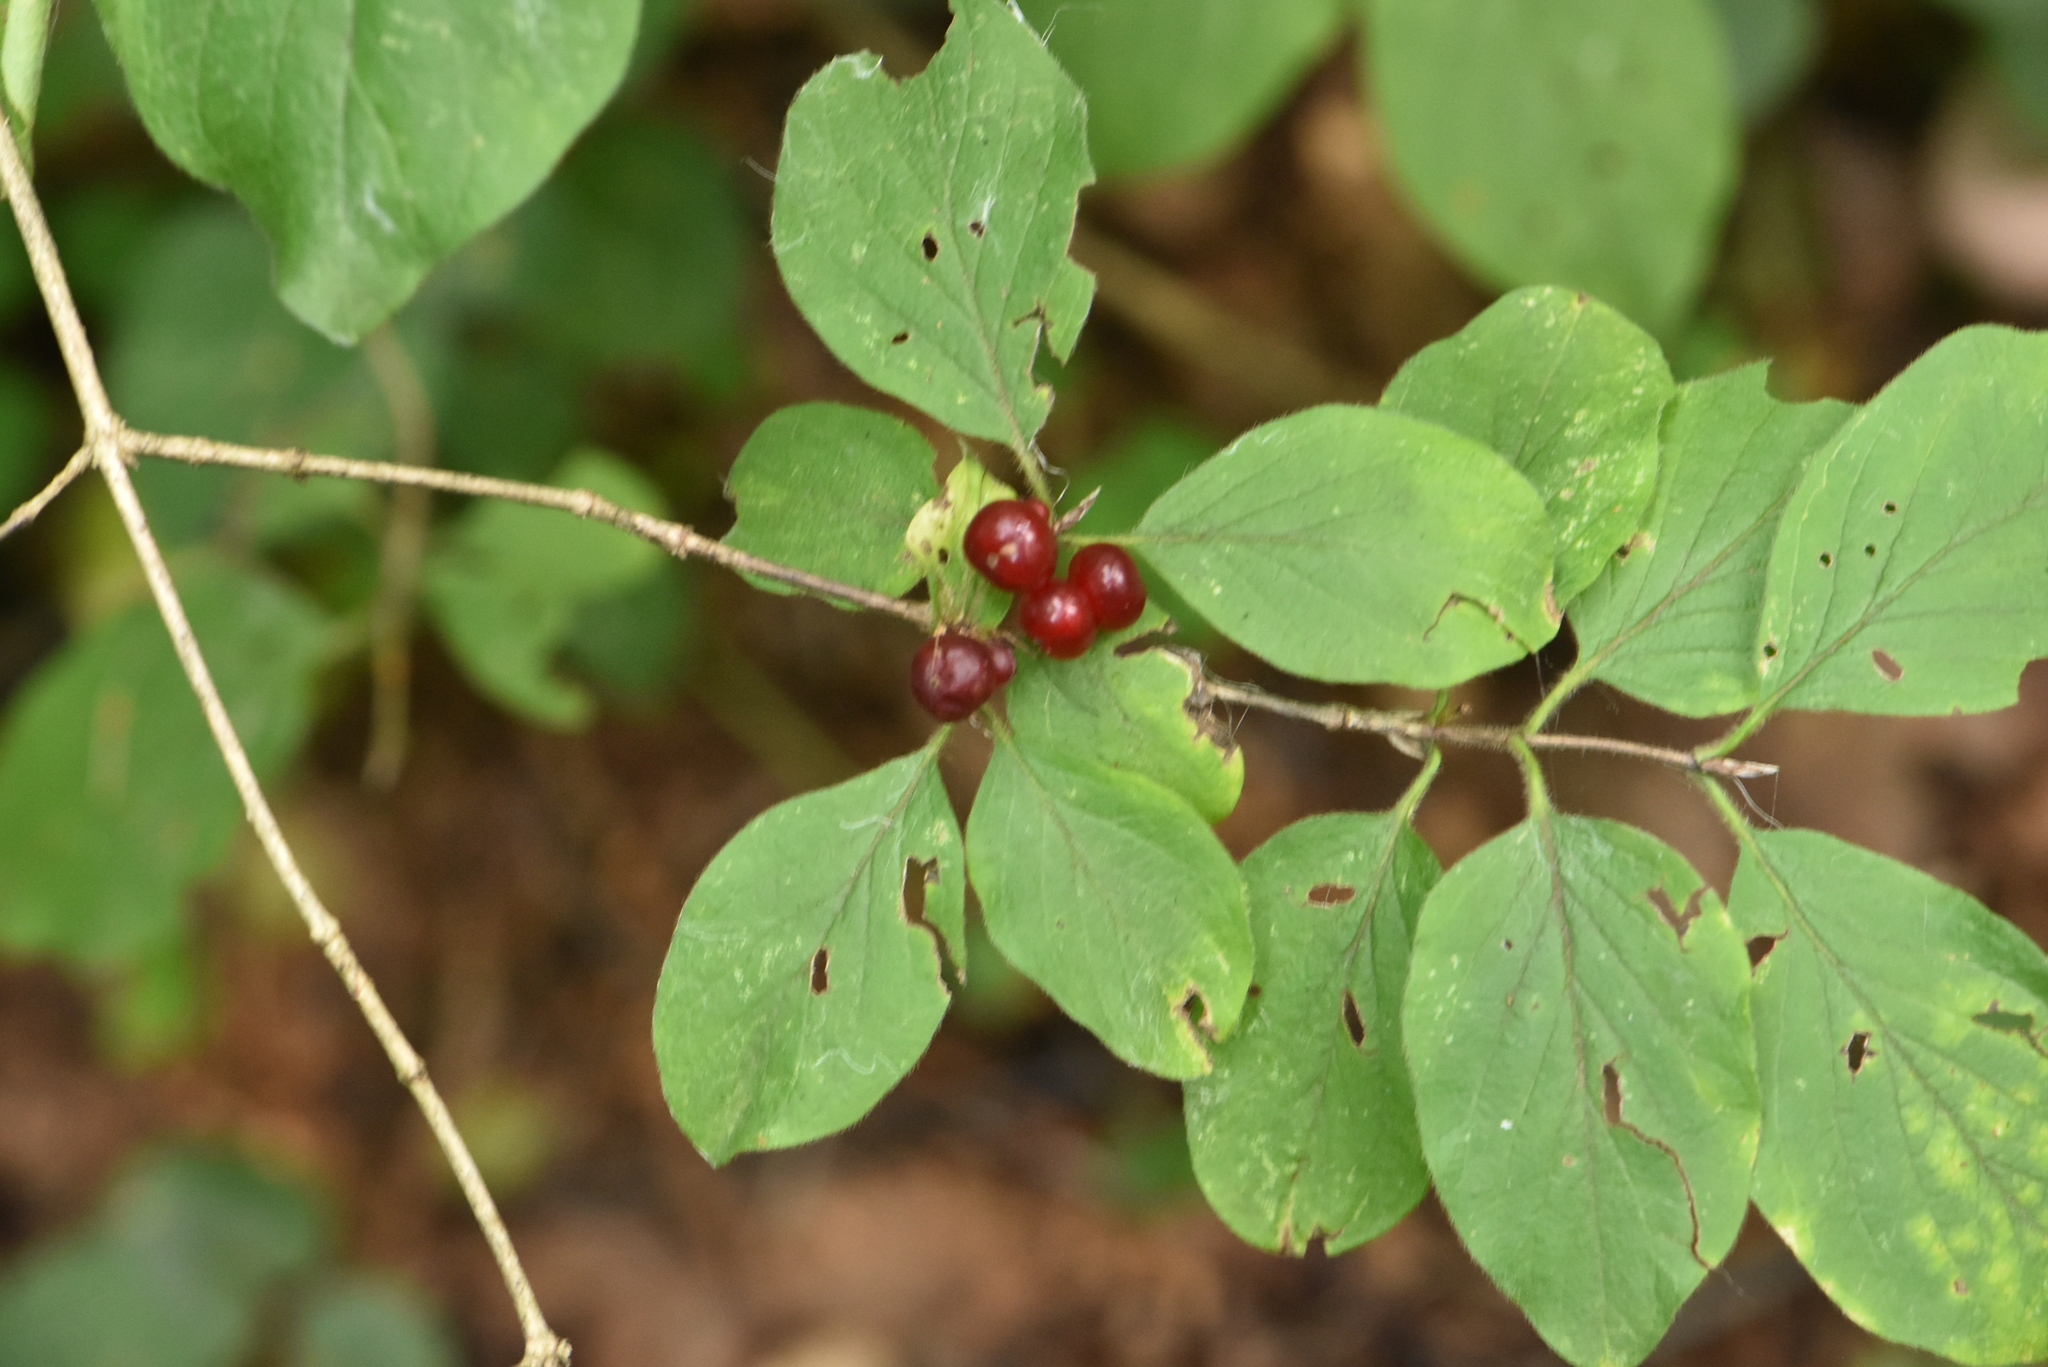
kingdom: Plantae
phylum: Tracheophyta
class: Magnoliopsida
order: Dipsacales
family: Caprifoliaceae
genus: Lonicera
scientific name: Lonicera xylosteum
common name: Fly honeysuckle
